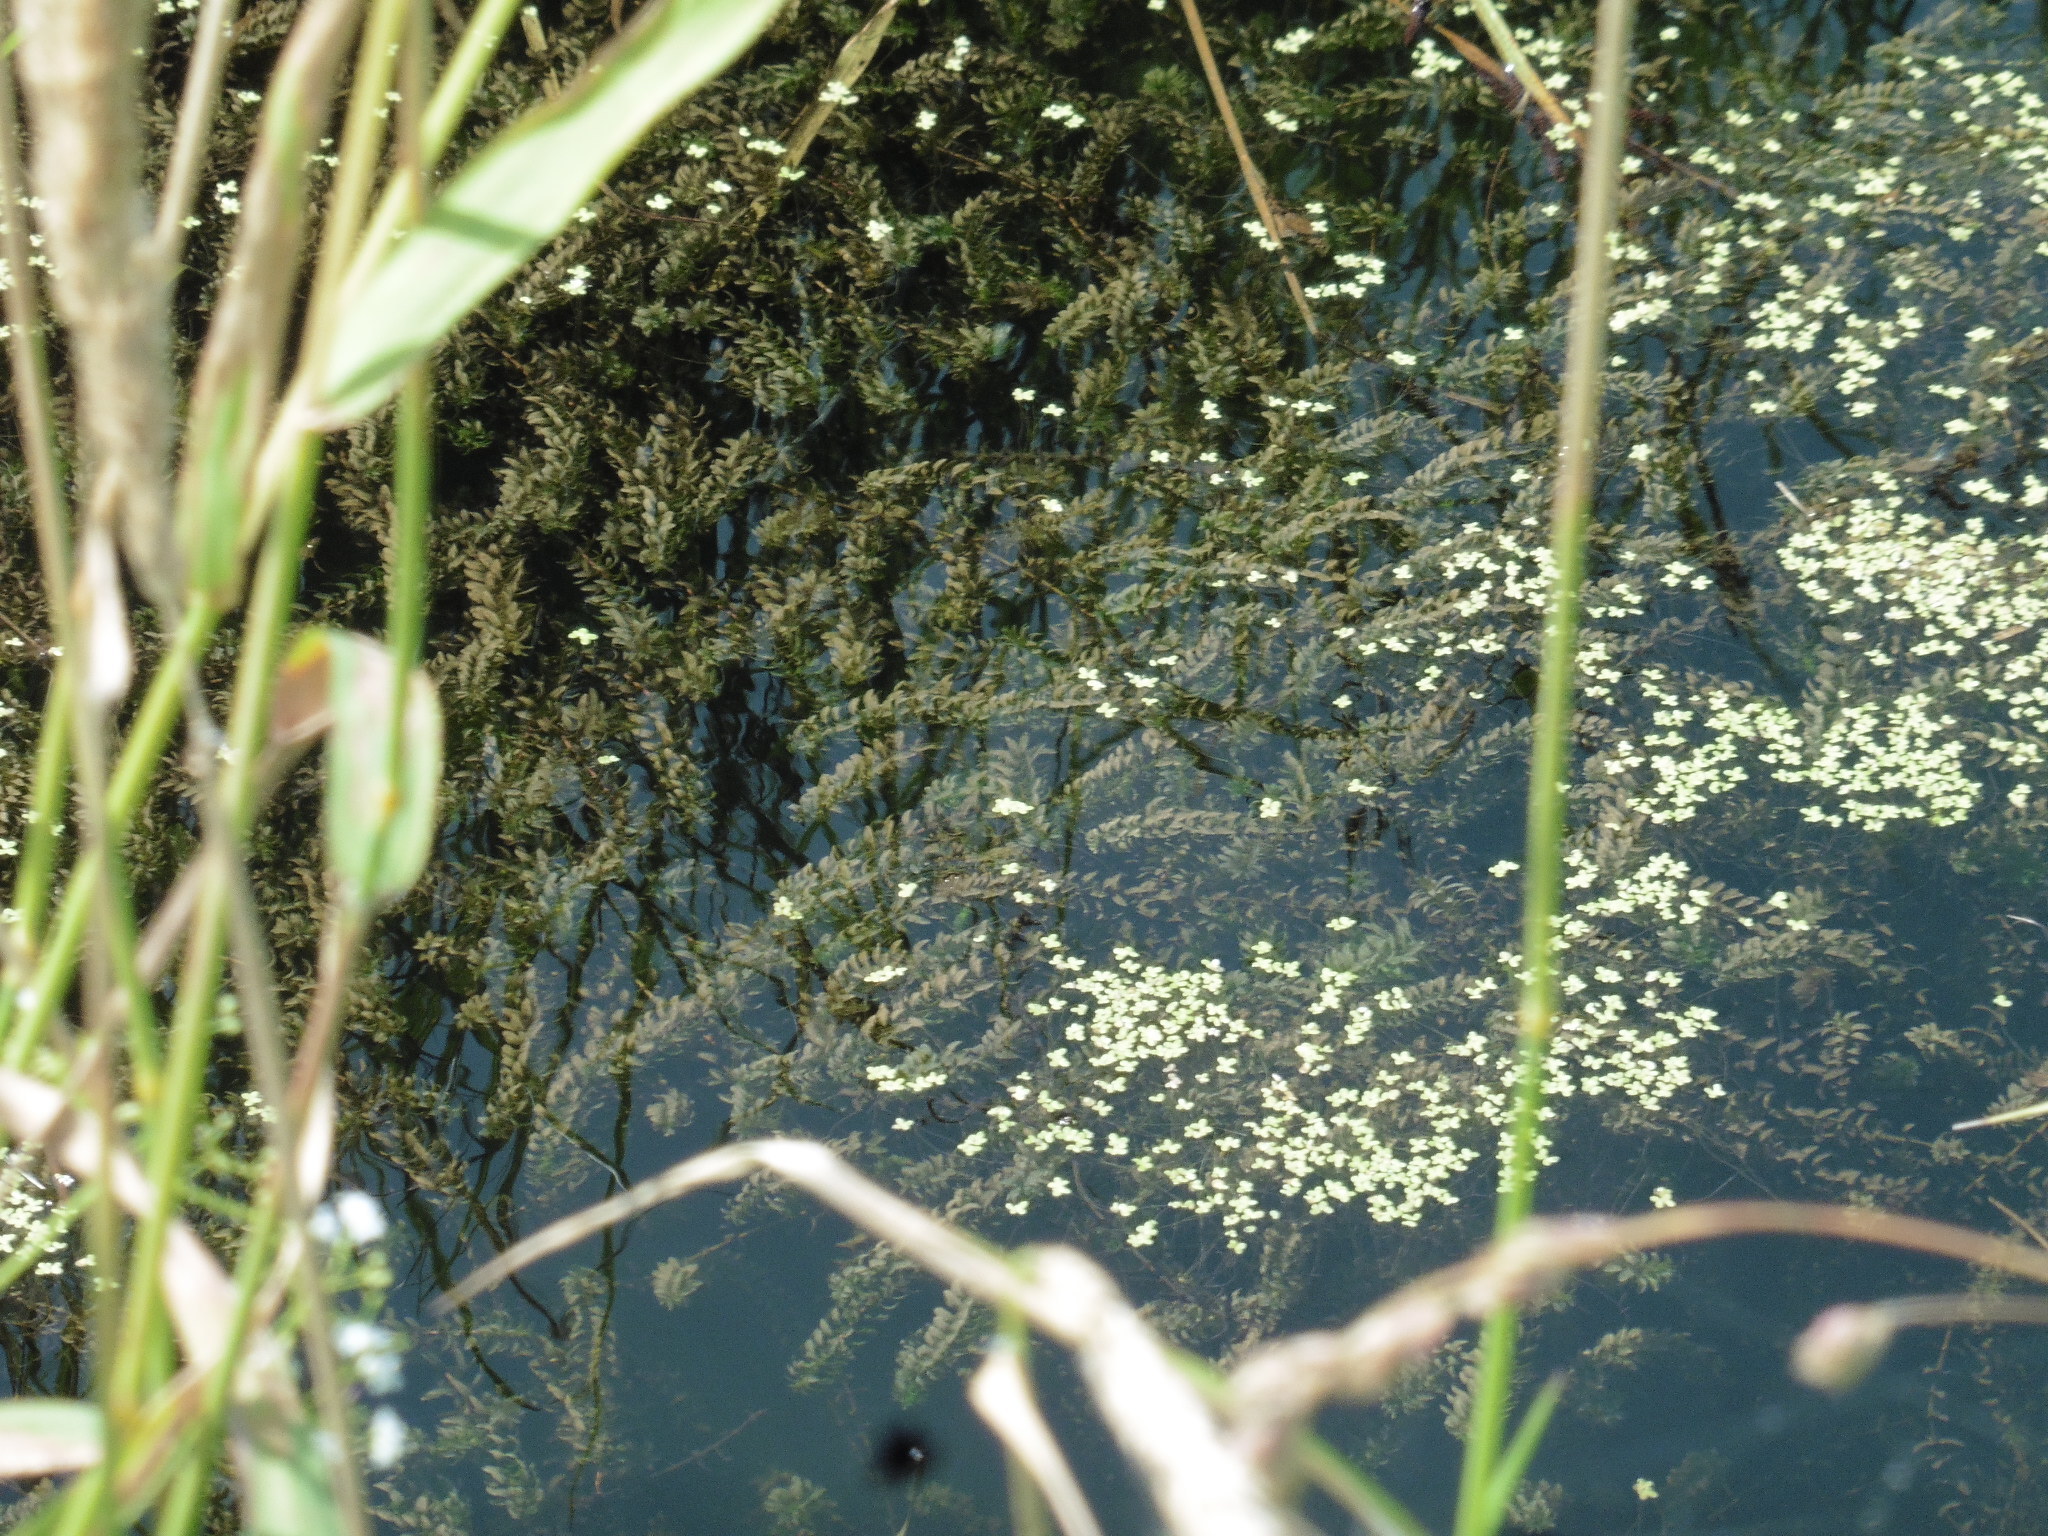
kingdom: Plantae
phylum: Tracheophyta
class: Liliopsida
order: Alismatales
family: Hydrocharitaceae
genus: Elodea
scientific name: Elodea canadensis
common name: Canadian waterweed
